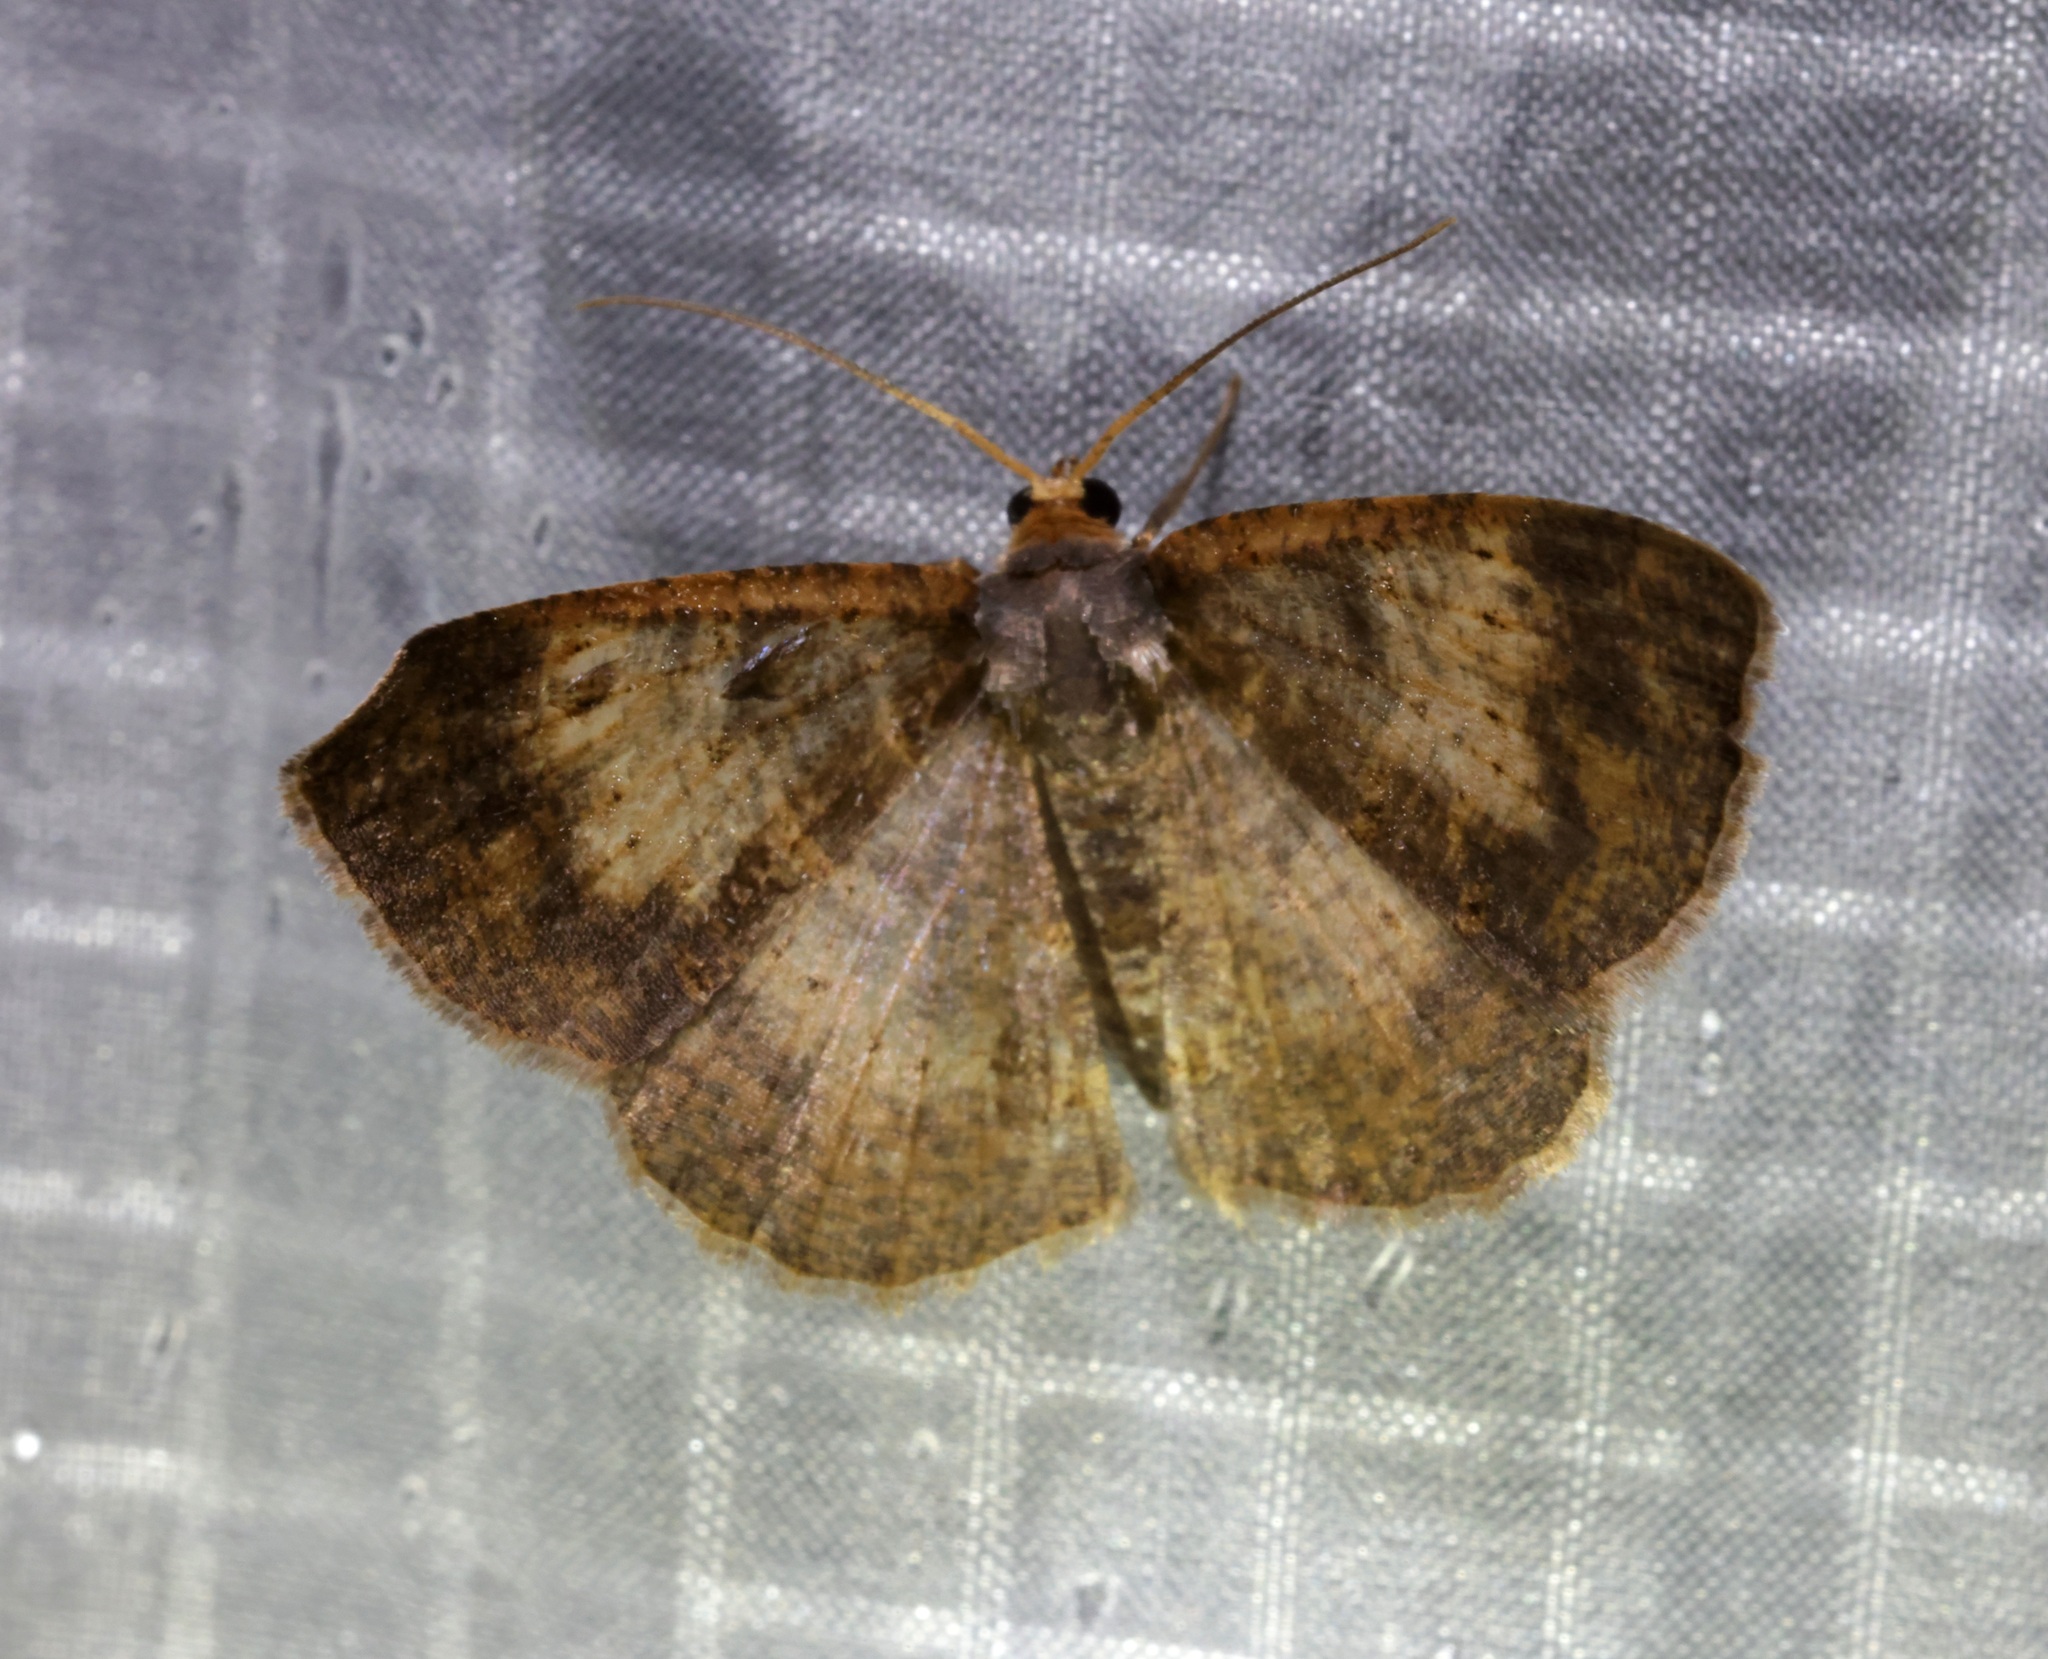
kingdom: Animalia
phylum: Arthropoda
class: Insecta
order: Lepidoptera
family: Geometridae
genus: Peratophyga
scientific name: Peratophyga crista
